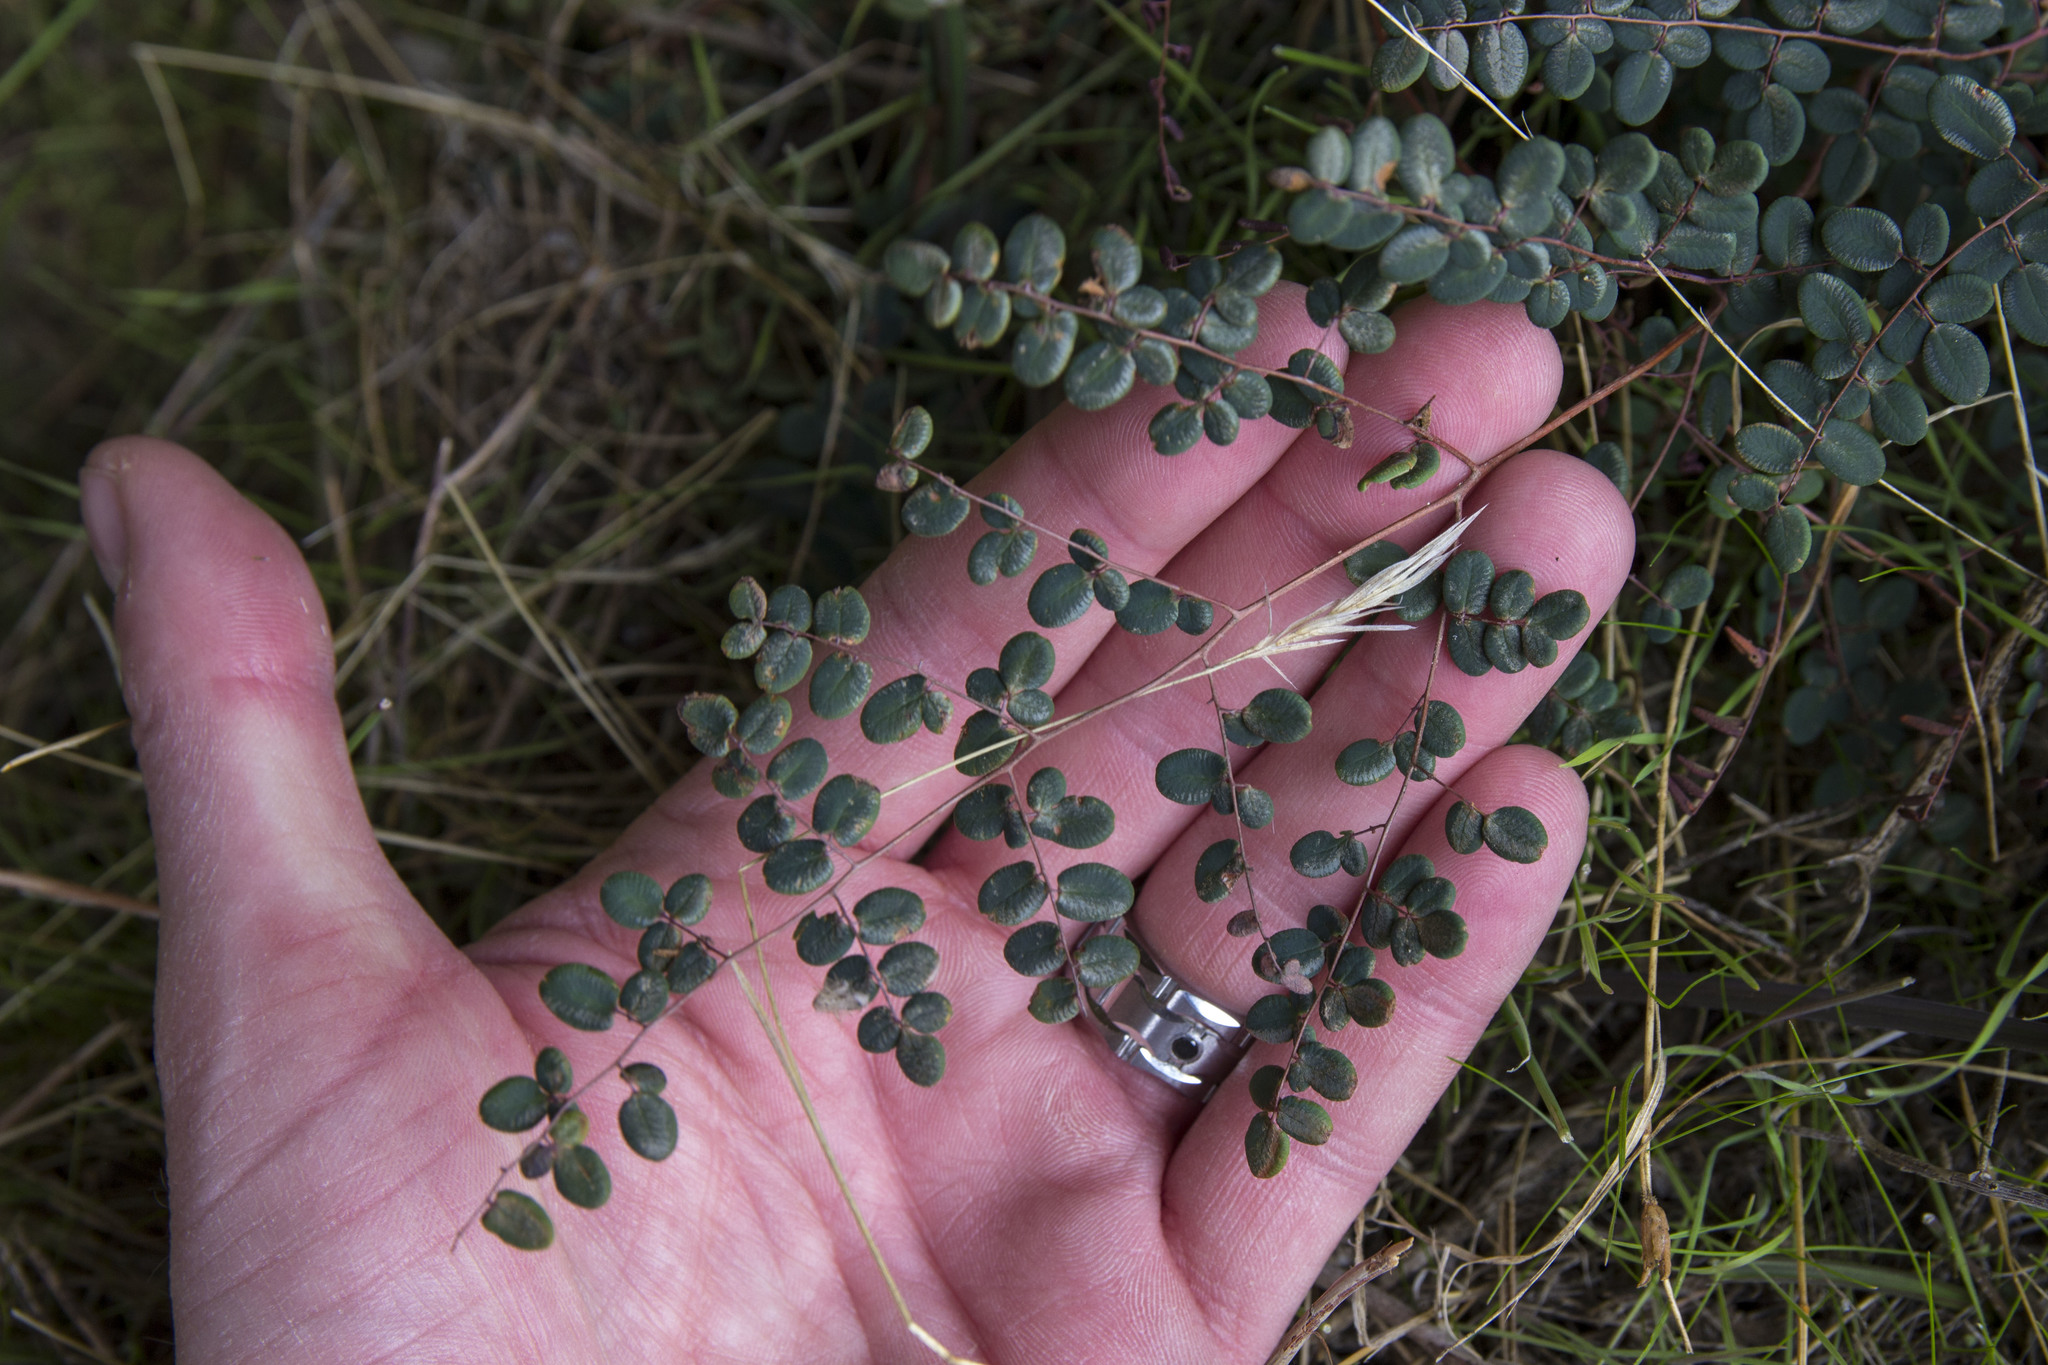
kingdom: Plantae
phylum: Tracheophyta
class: Polypodiopsida
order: Polypodiales
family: Pteridaceae
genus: Pellaea
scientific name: Pellaea andromedifolia
